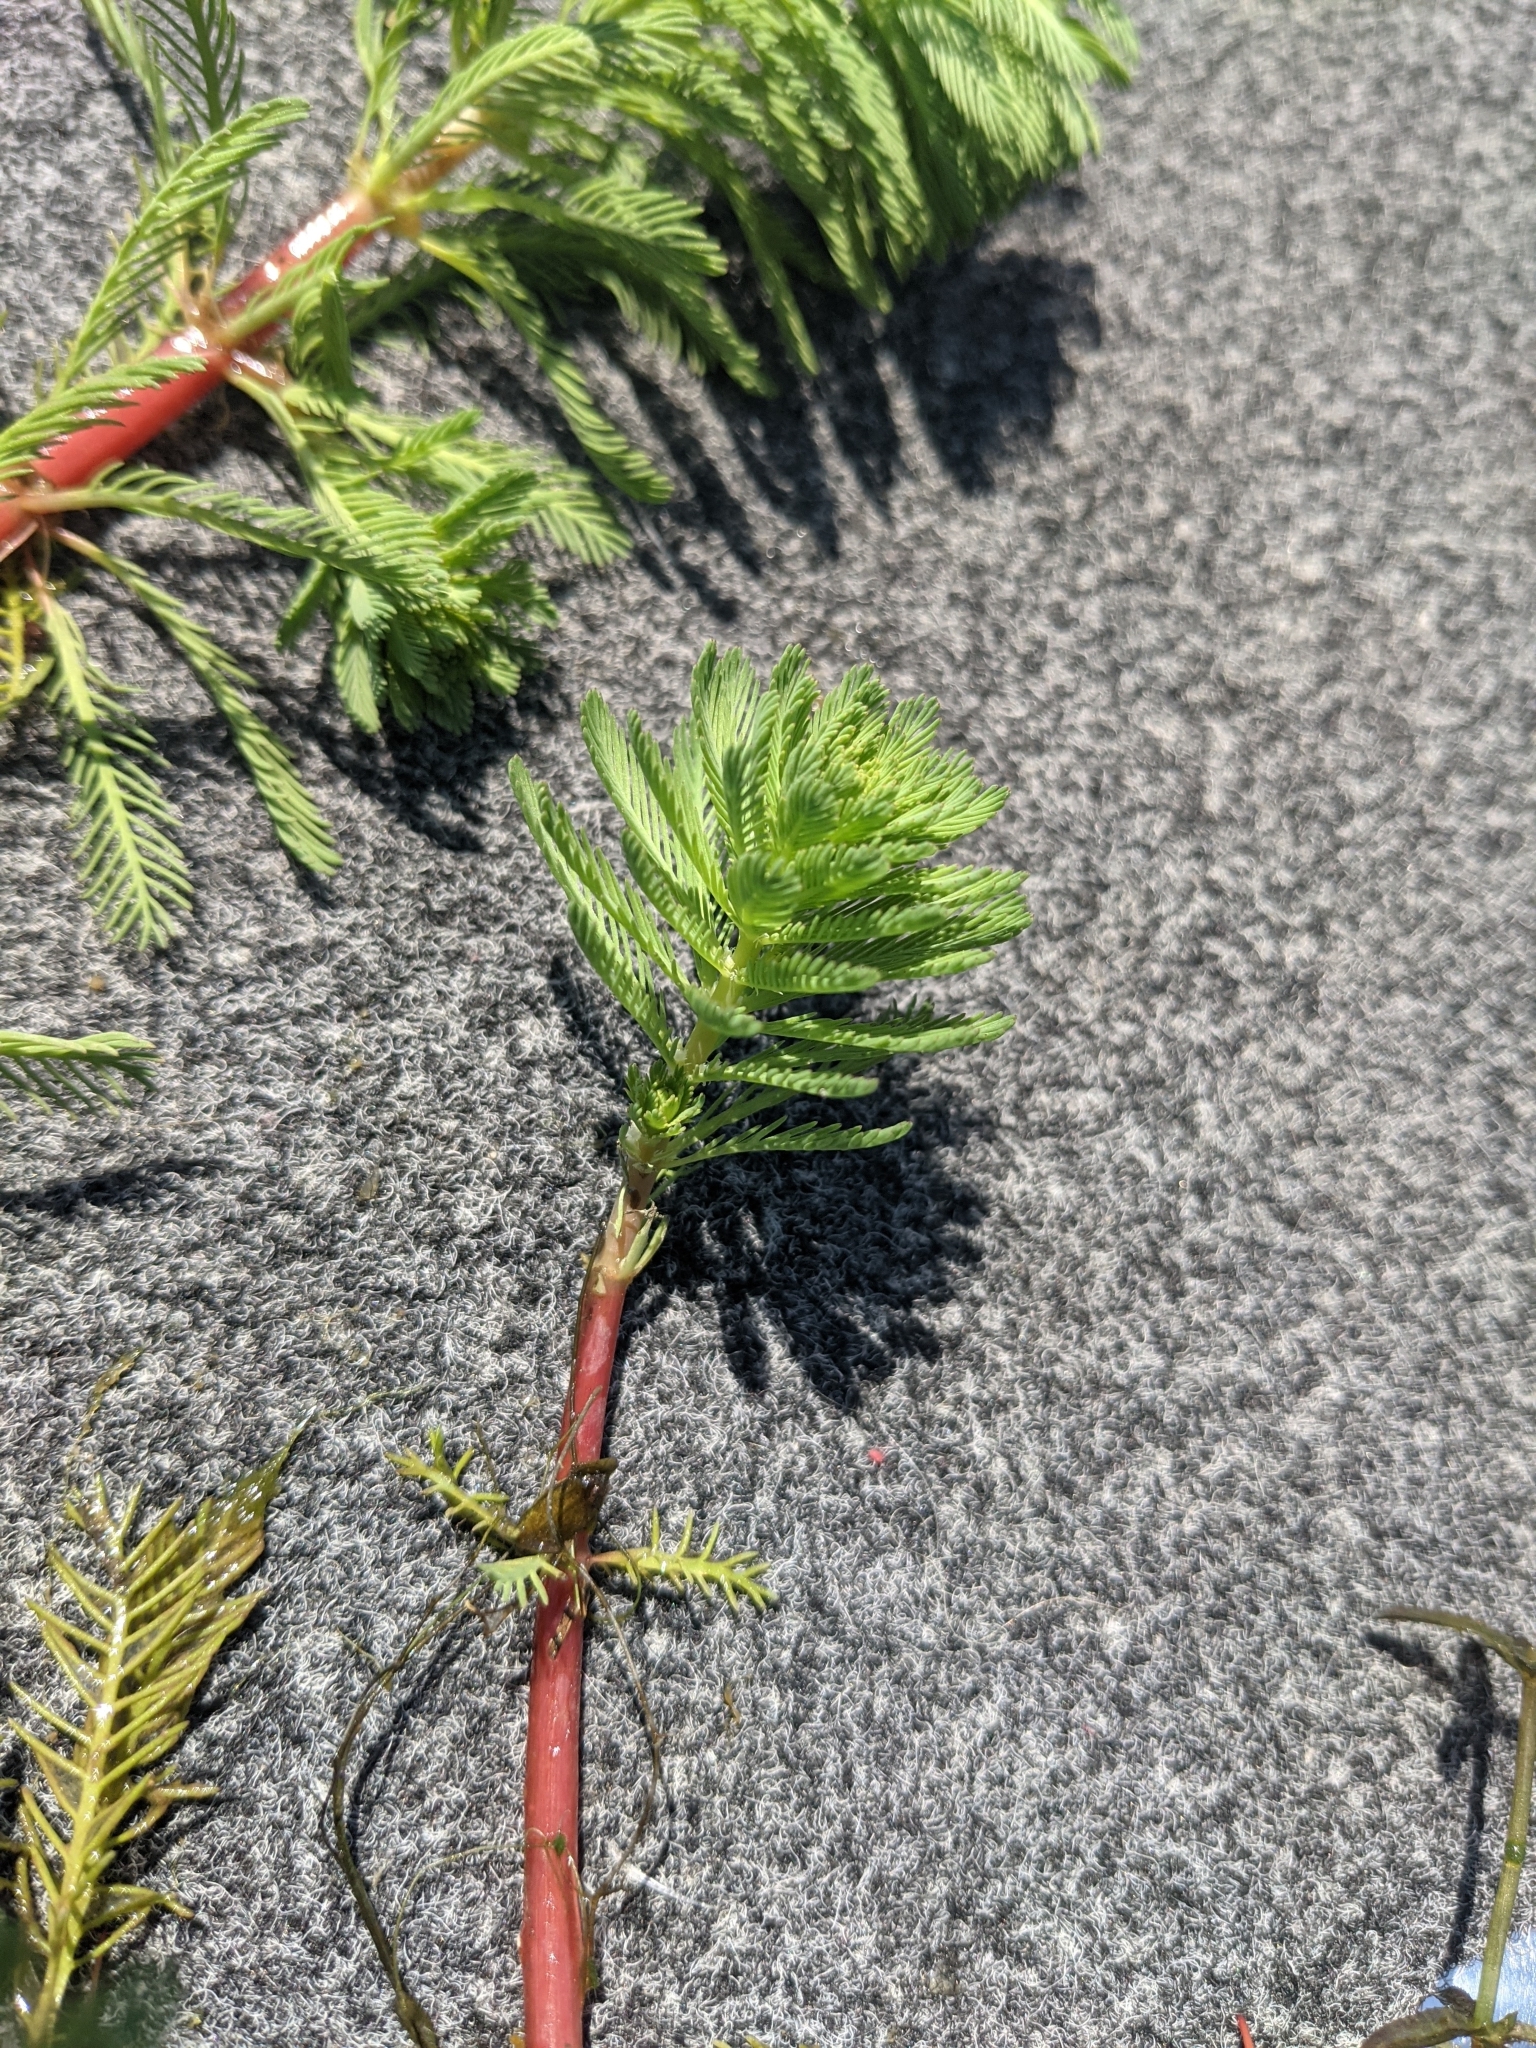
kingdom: Plantae
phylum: Tracheophyta
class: Magnoliopsida
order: Saxifragales
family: Haloragaceae
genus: Myriophyllum
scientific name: Myriophyllum aquaticum
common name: Parrot's feather
